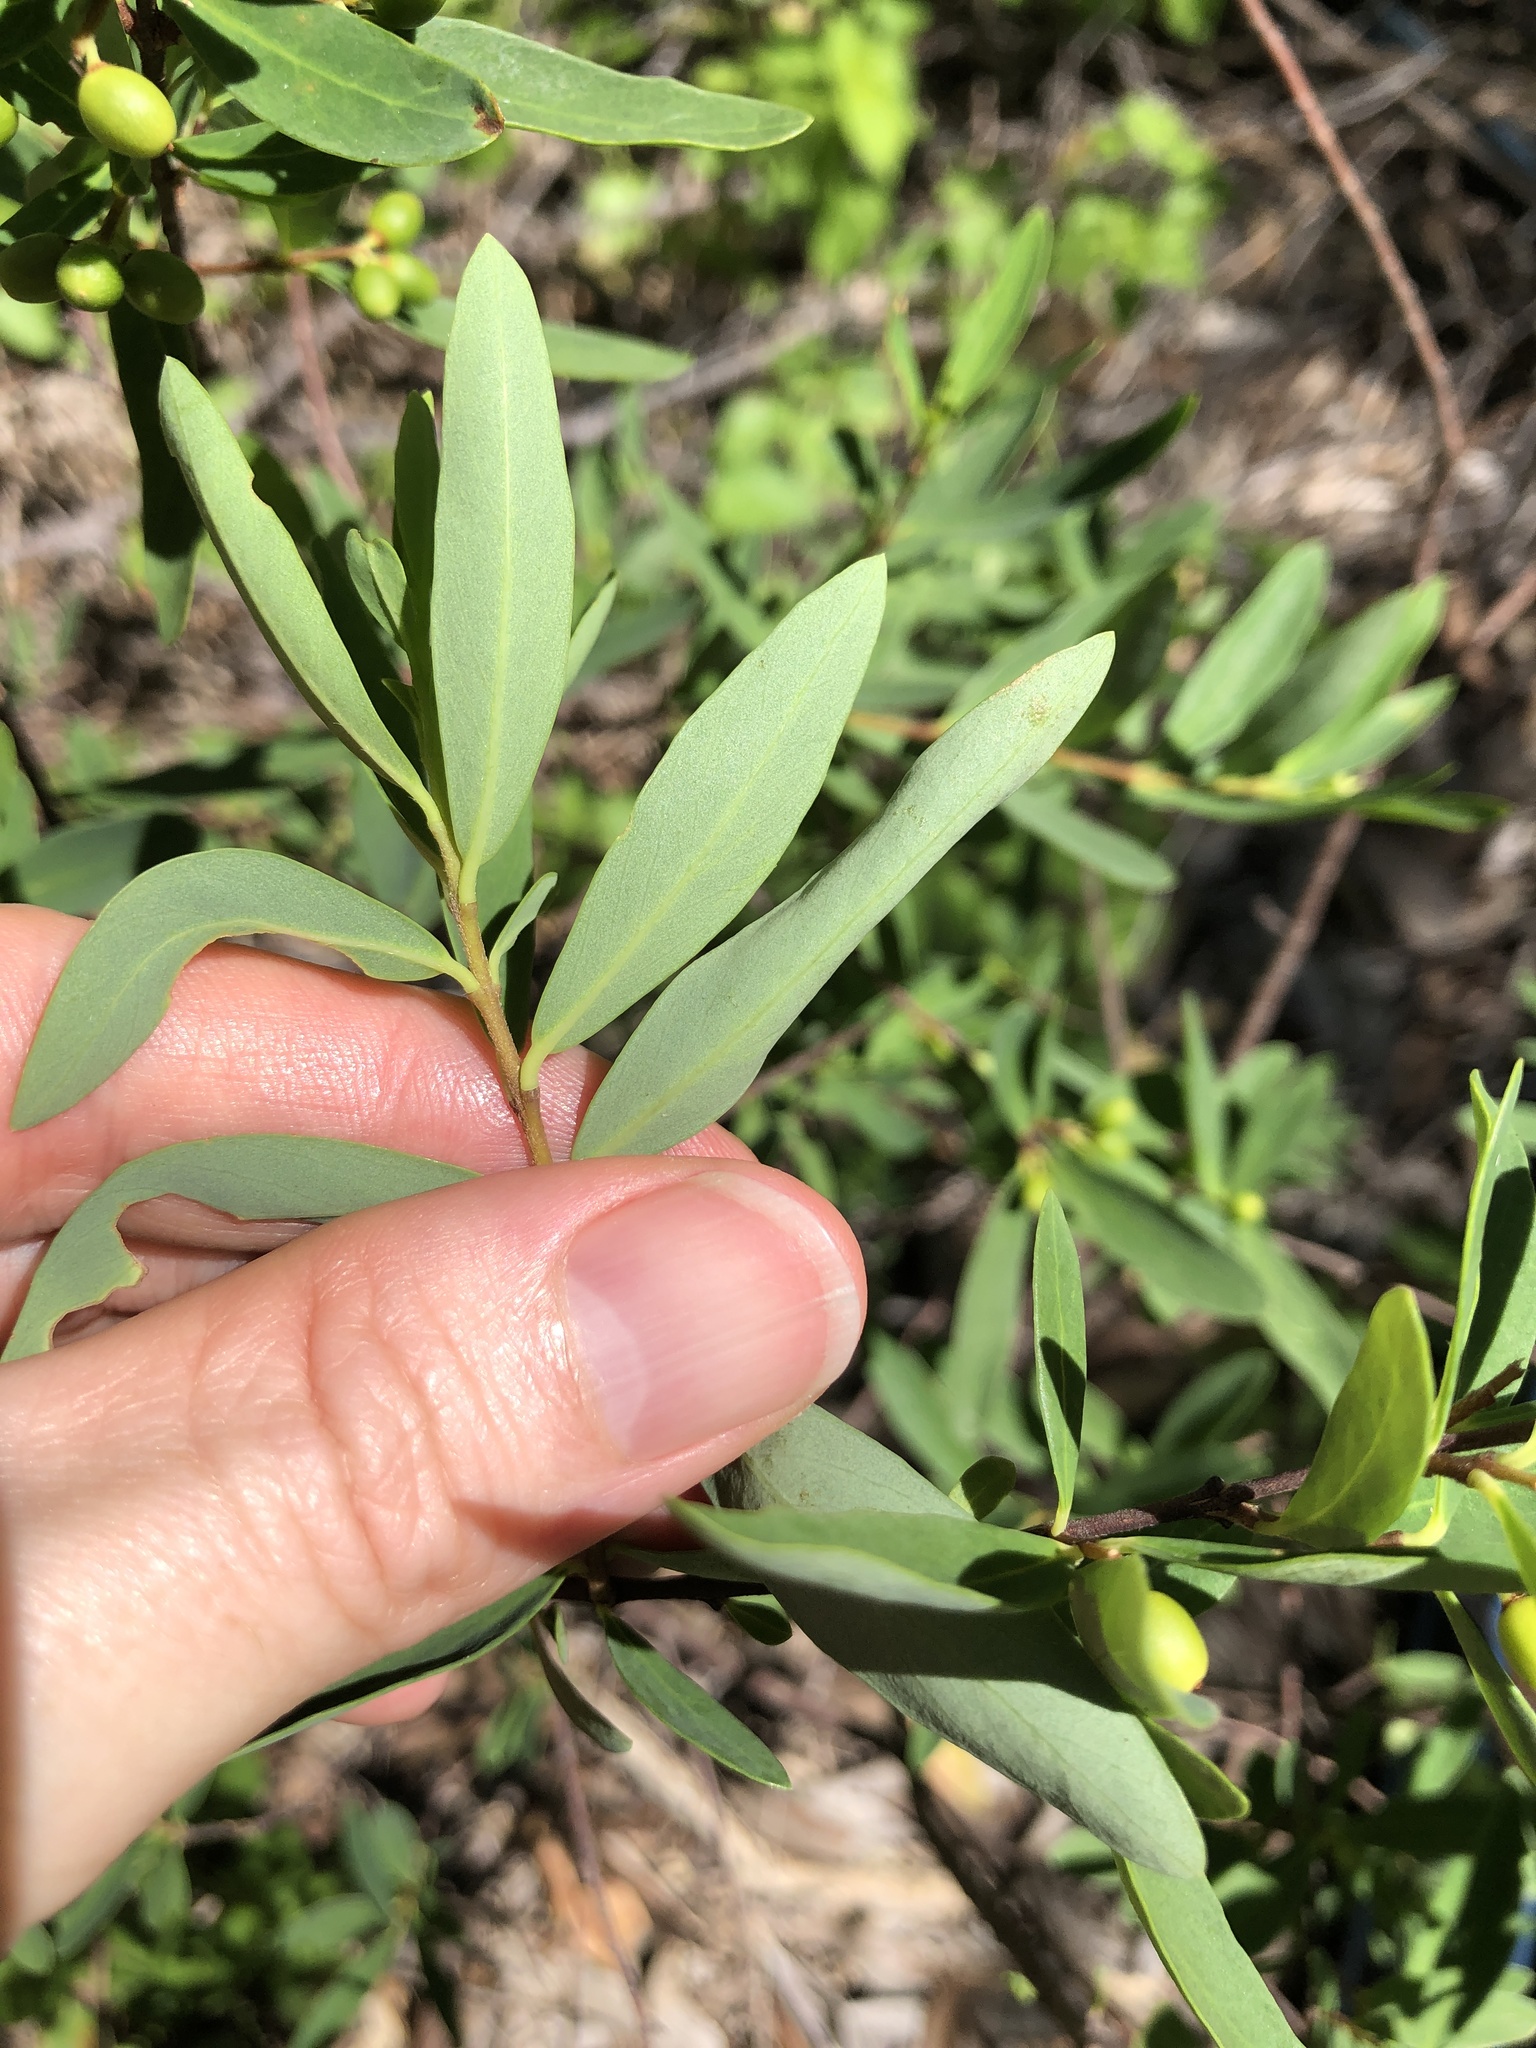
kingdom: Plantae
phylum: Tracheophyta
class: Magnoliopsida
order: Malvales
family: Thymelaeaceae
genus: Wikstroemia
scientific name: Wikstroemia indica
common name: Tiebush
